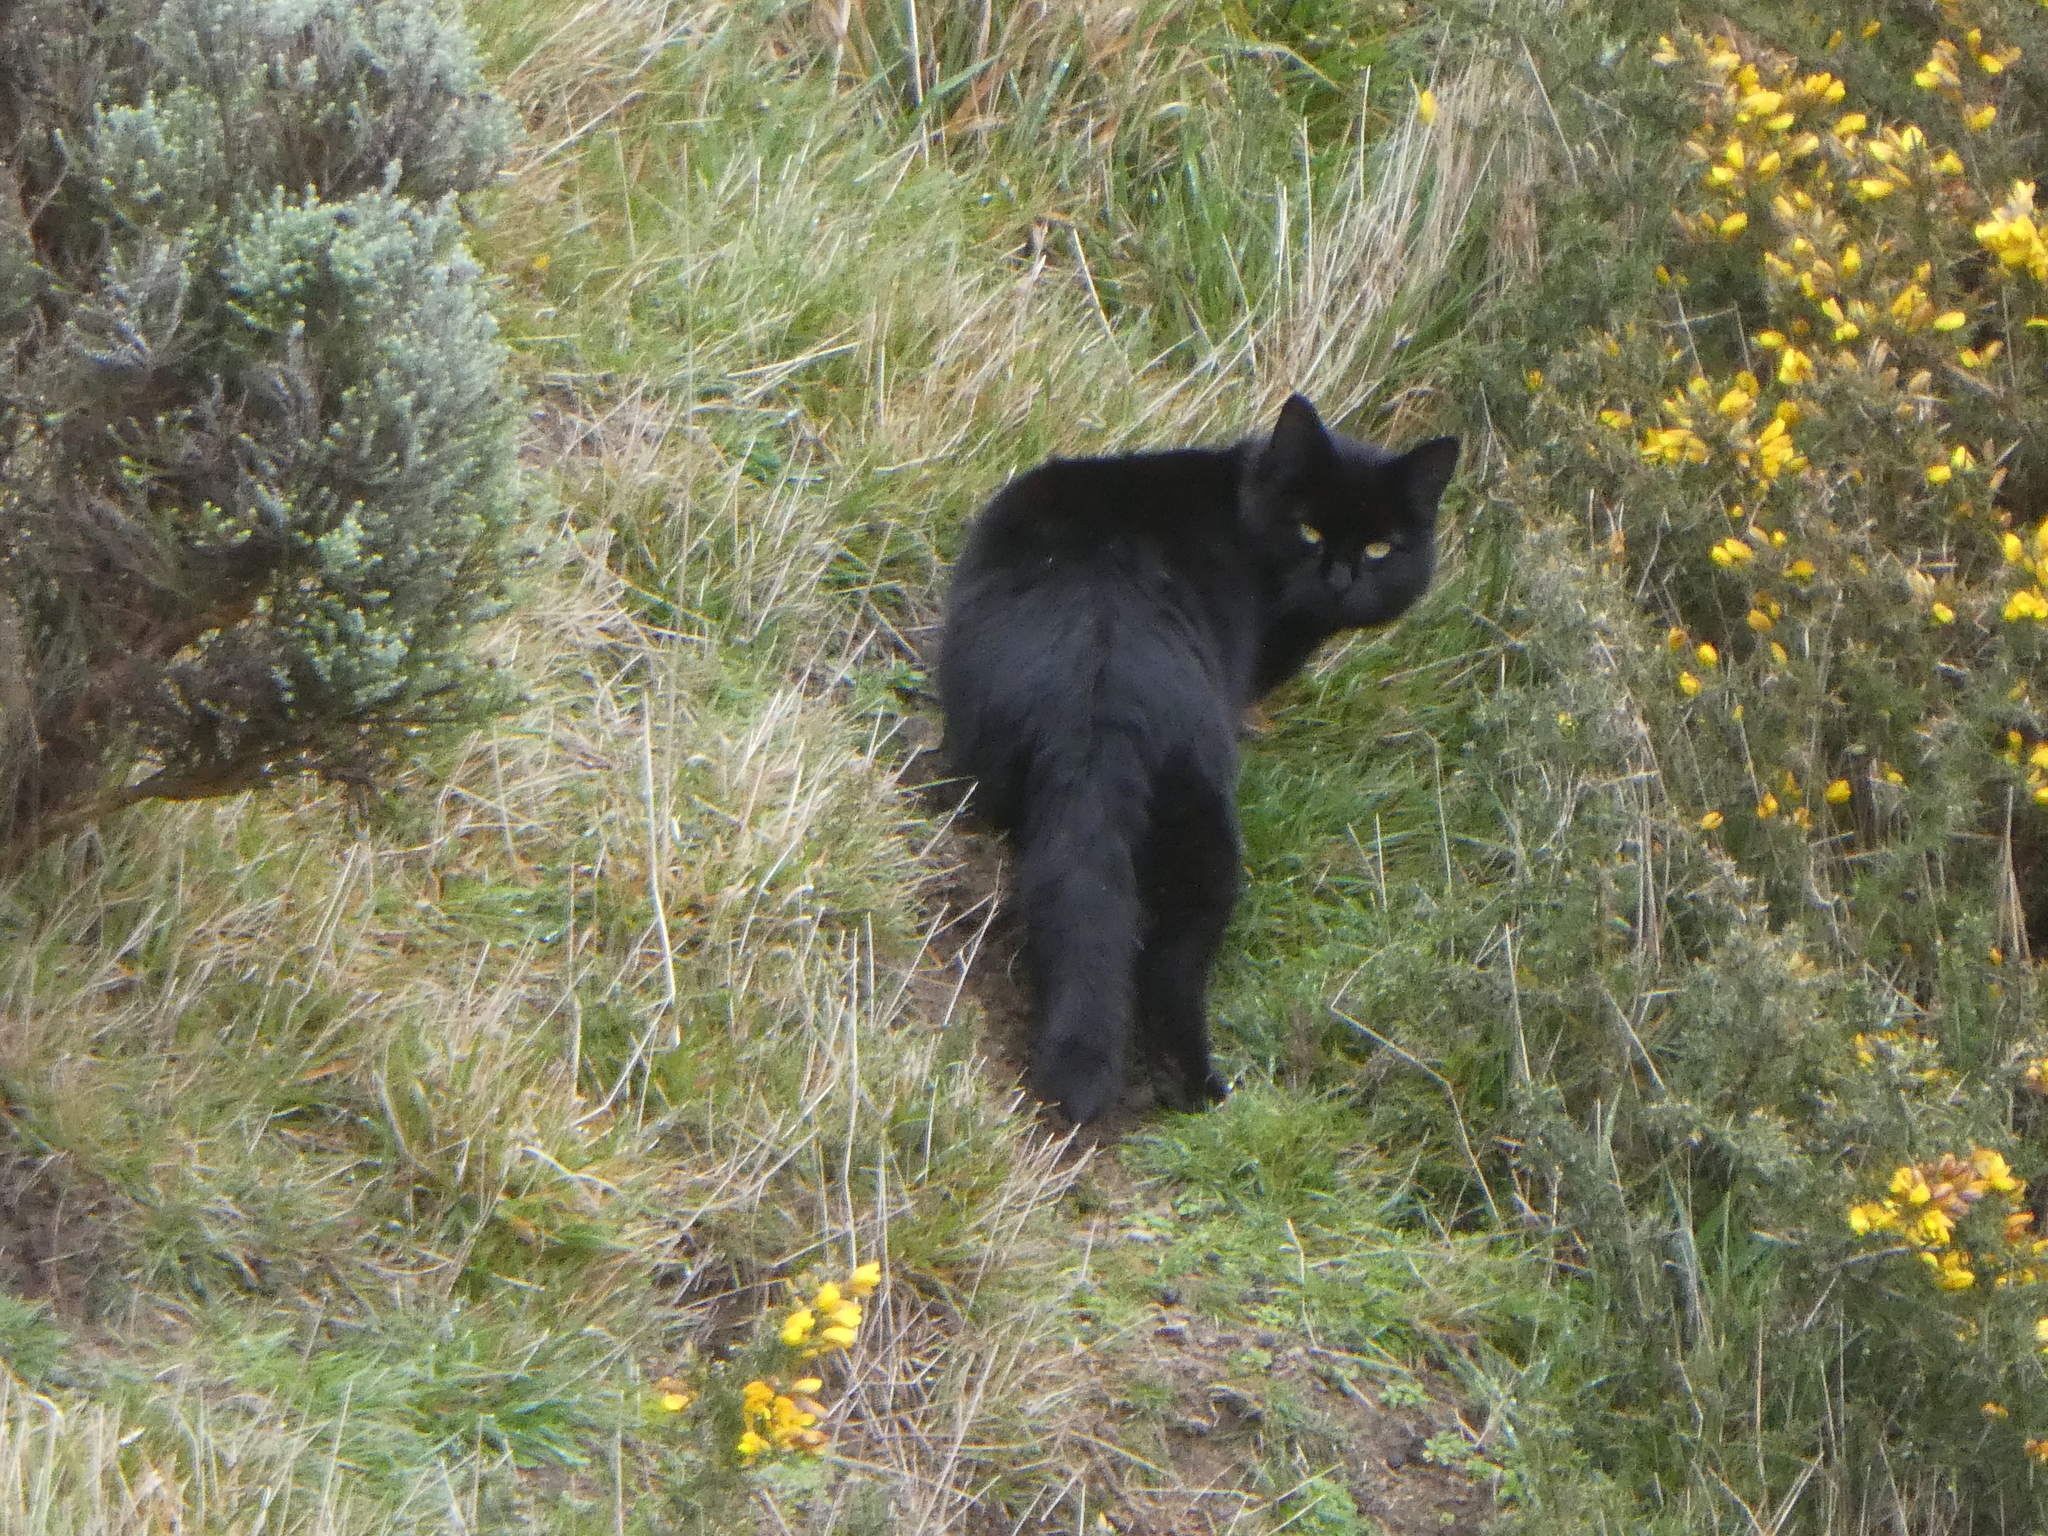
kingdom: Animalia
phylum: Chordata
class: Mammalia
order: Carnivora
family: Felidae
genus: Felis
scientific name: Felis catus
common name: Domestic cat
